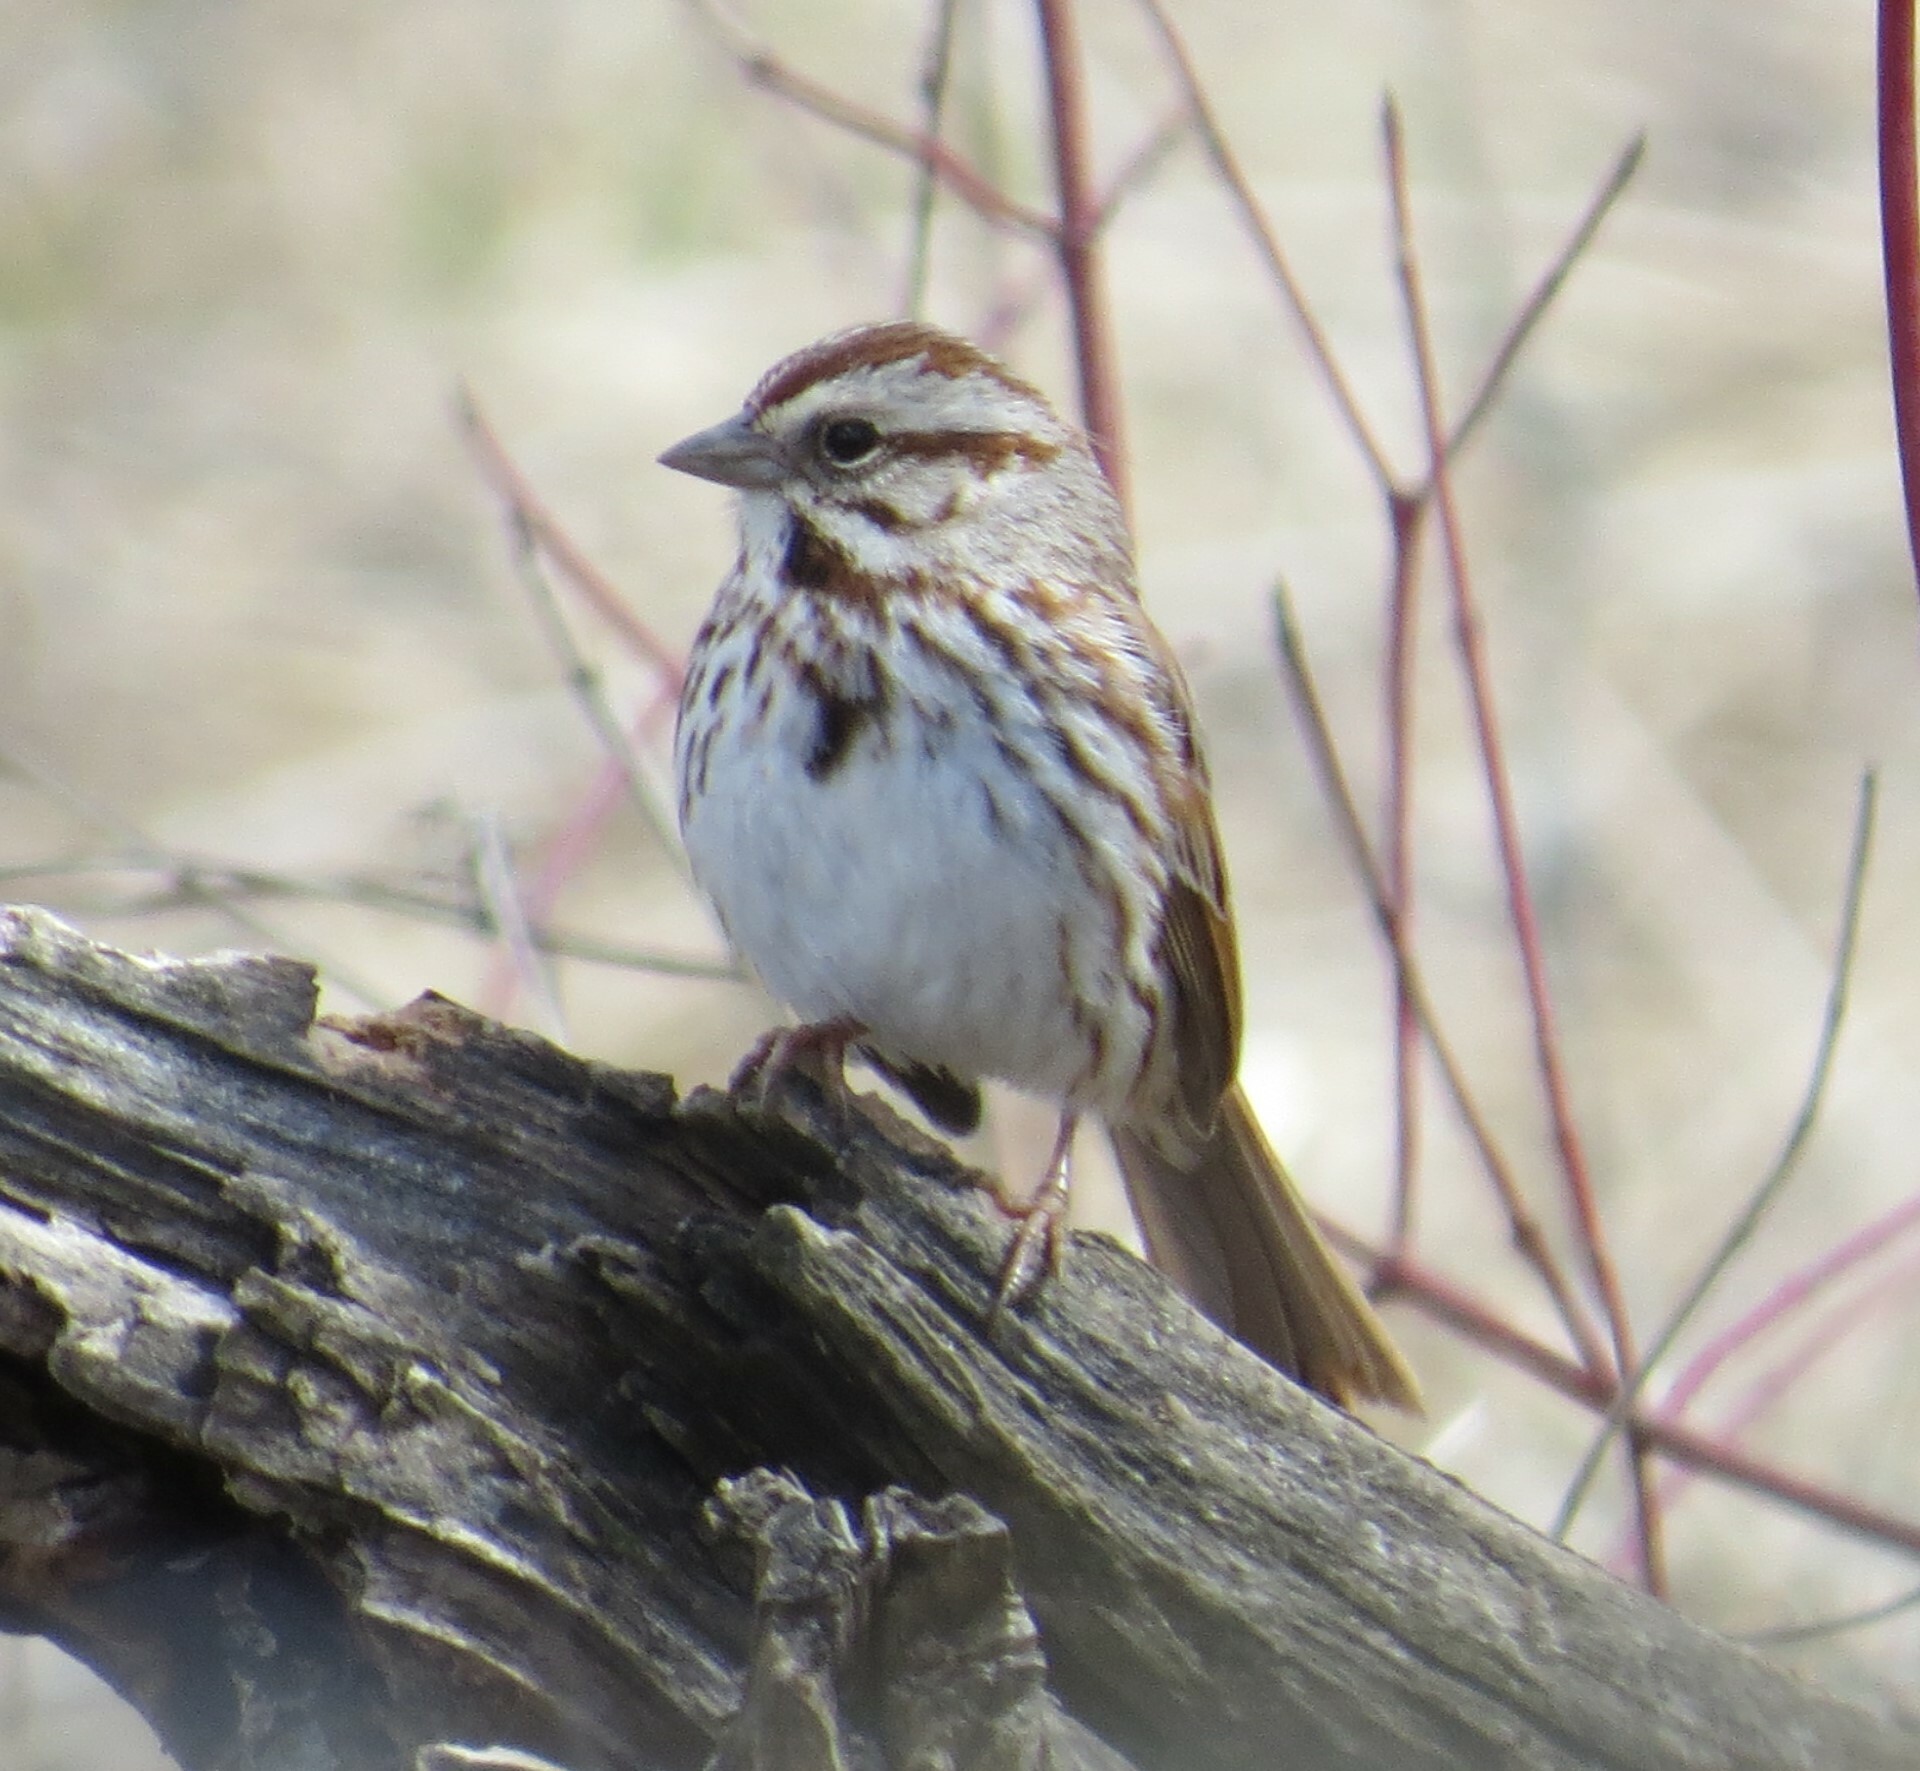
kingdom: Animalia
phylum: Chordata
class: Aves
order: Passeriformes
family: Passerellidae
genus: Melospiza
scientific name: Melospiza melodia
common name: Song sparrow
